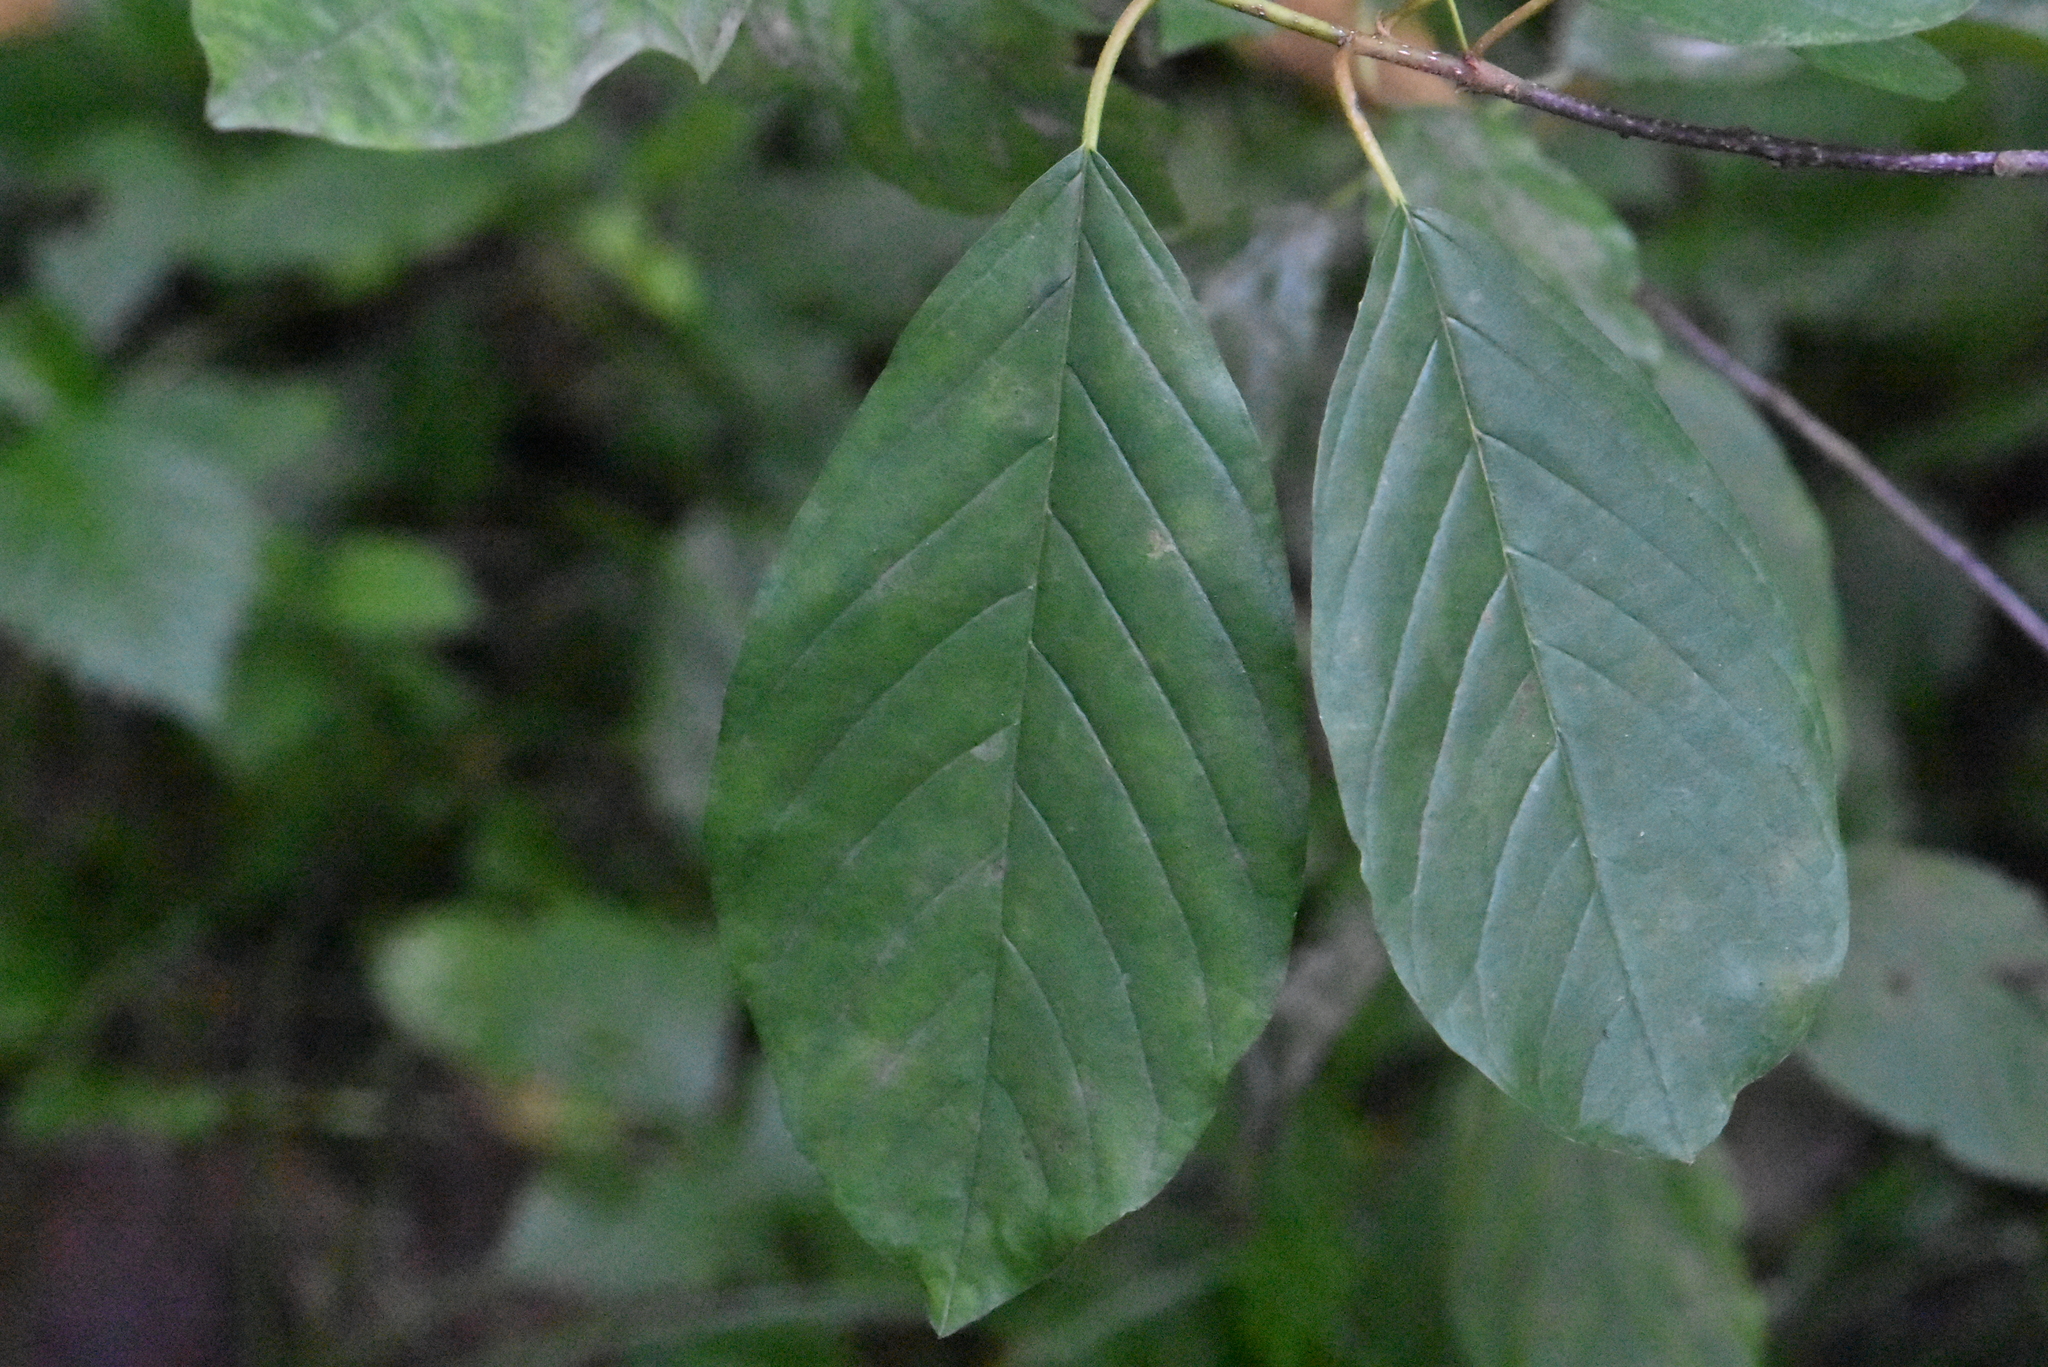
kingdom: Plantae
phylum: Tracheophyta
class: Magnoliopsida
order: Rosales
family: Rhamnaceae
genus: Frangula
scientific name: Frangula alnus
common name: Alder buckthorn
